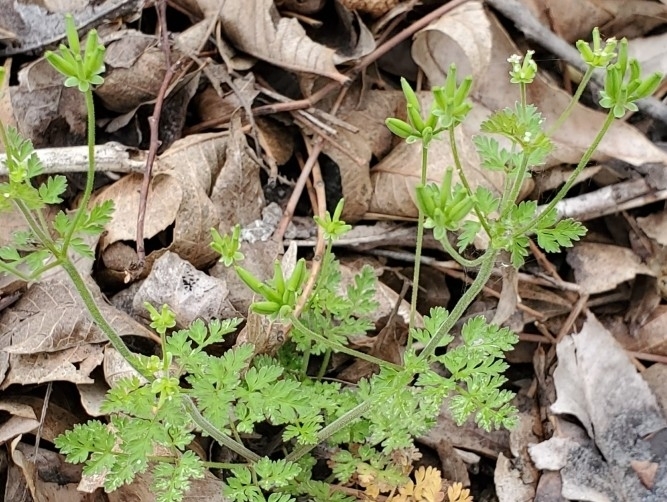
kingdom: Plantae
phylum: Tracheophyta
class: Magnoliopsida
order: Apiales
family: Apiaceae
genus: Chaerophyllum
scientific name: Chaerophyllum tainturieri
